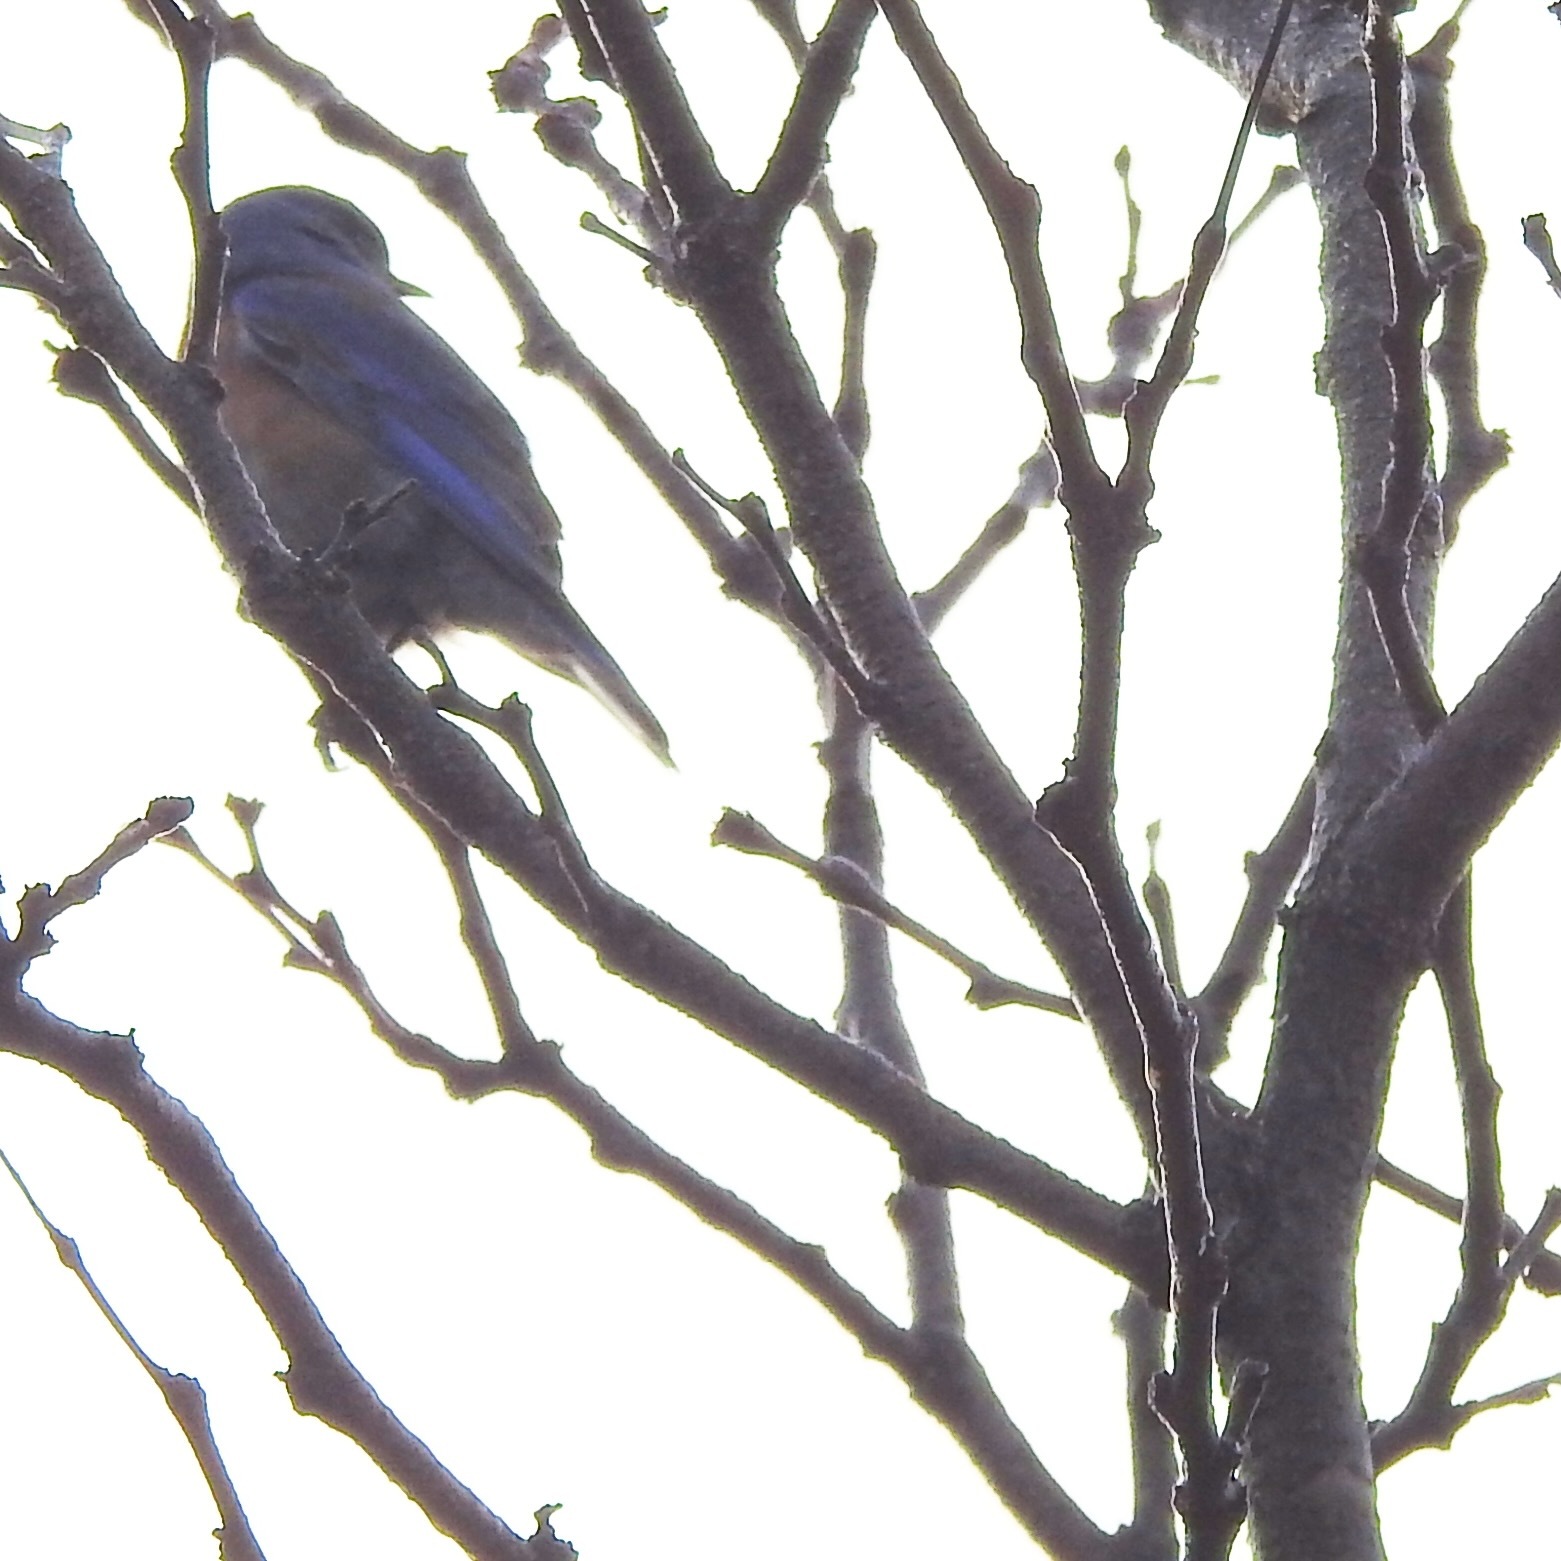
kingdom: Animalia
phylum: Chordata
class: Aves
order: Passeriformes
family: Turdidae
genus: Sialia
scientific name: Sialia mexicana
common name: Western bluebird
